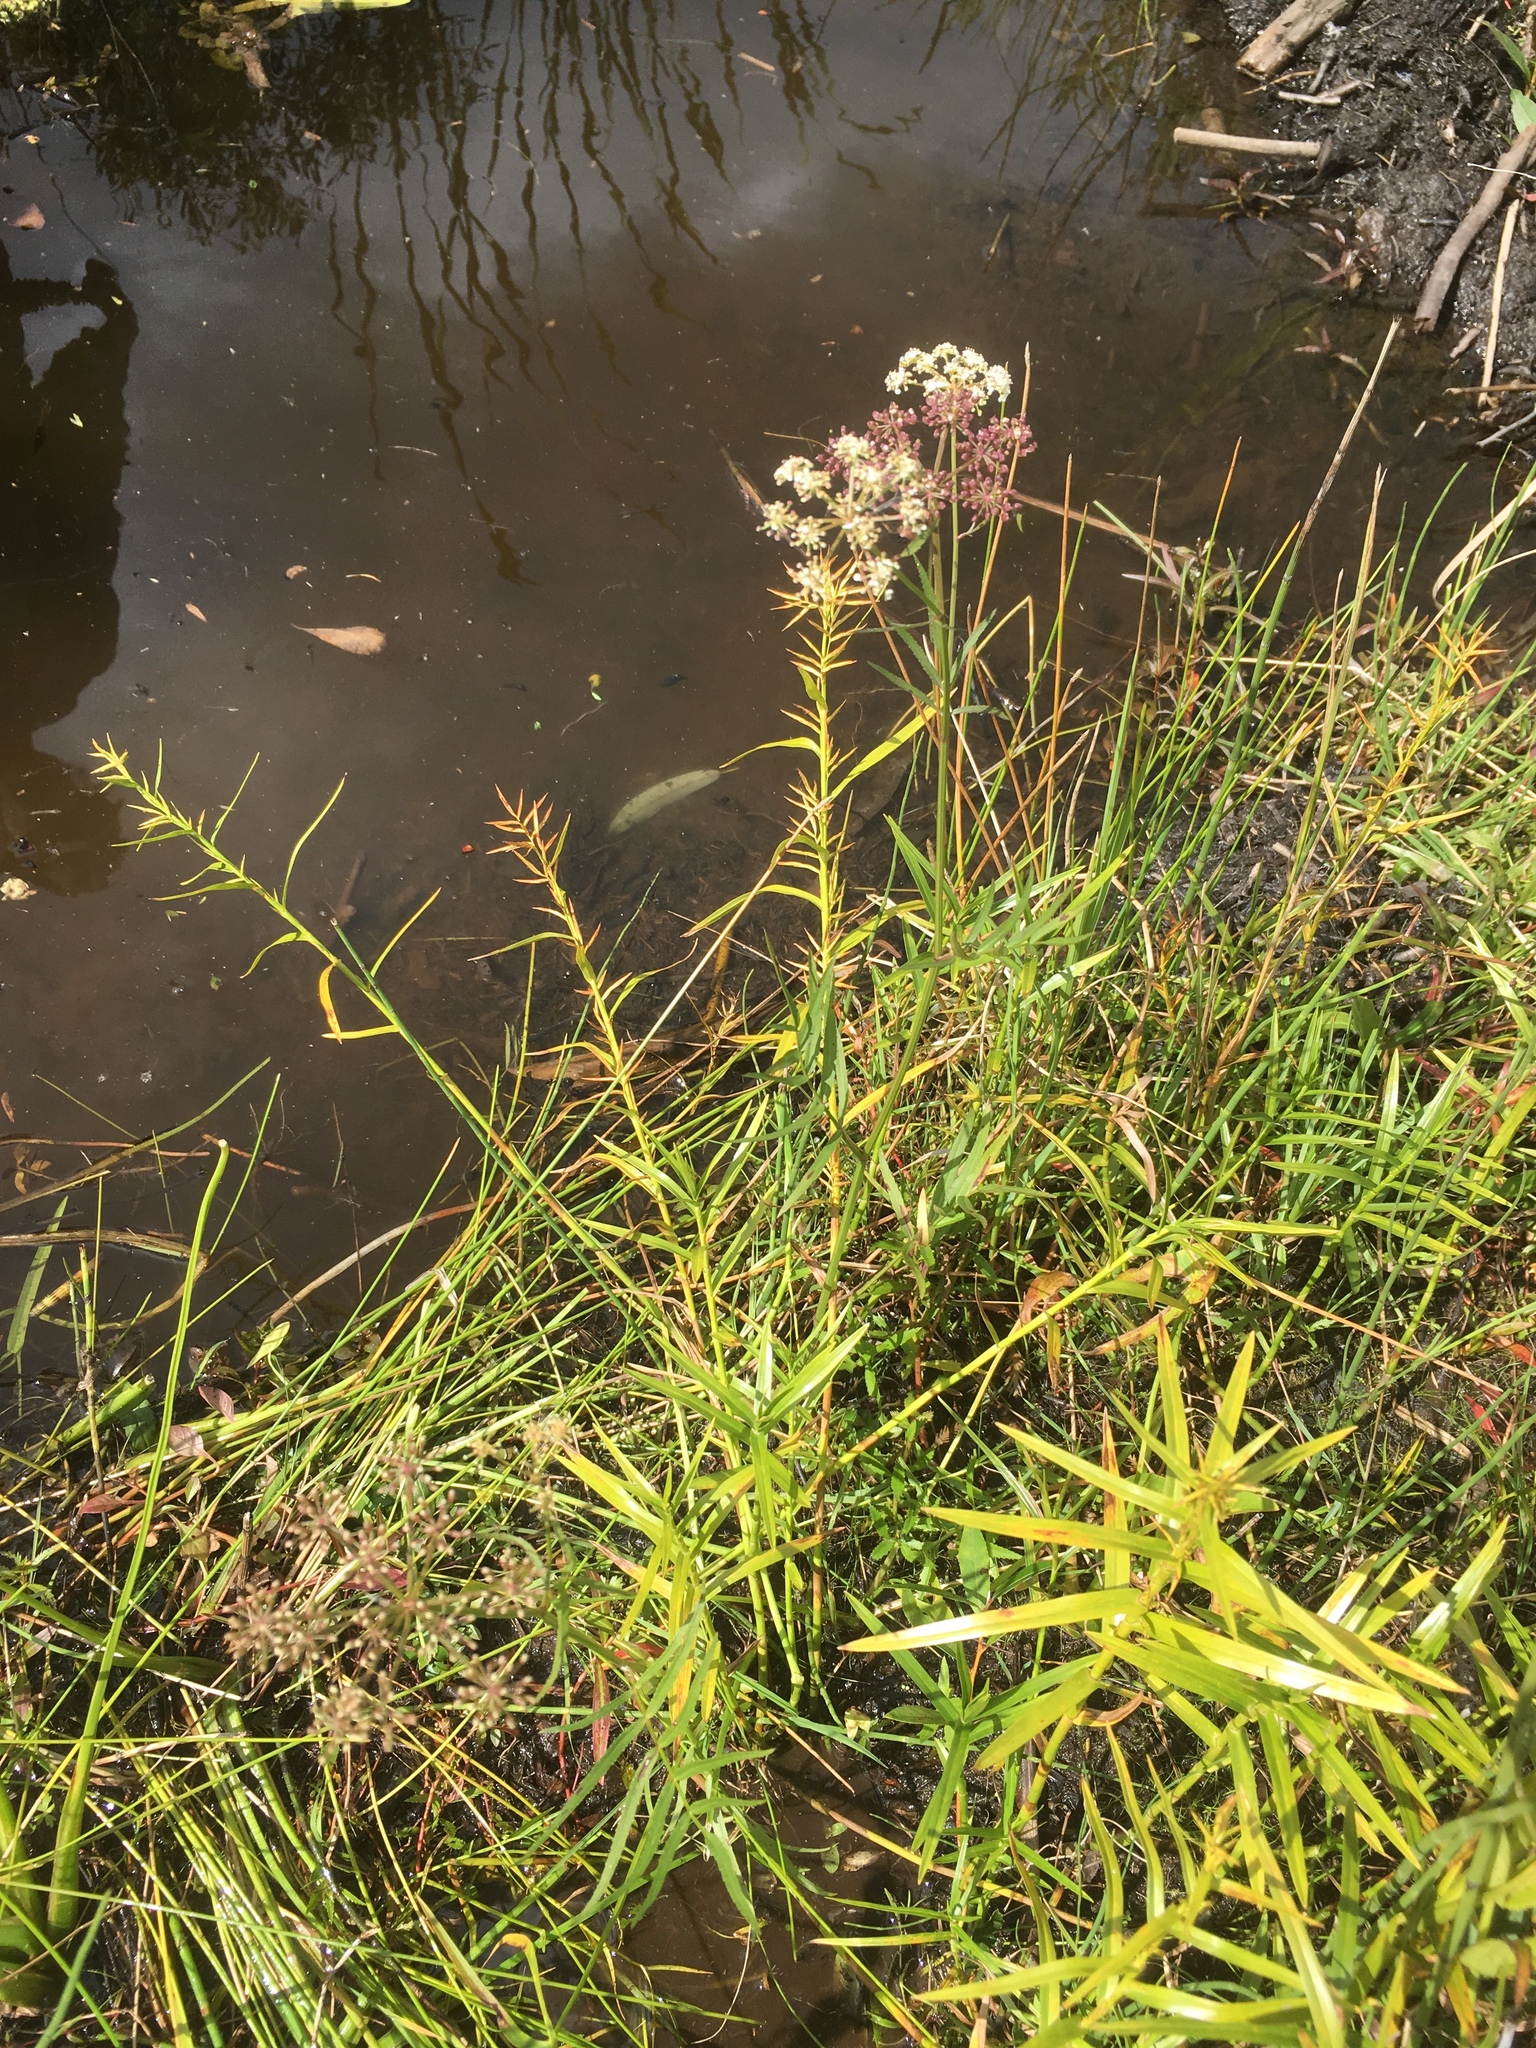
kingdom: Plantae
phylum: Tracheophyta
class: Magnoliopsida
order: Apiales
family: Apiaceae
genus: Sium
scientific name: Sium suave
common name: Hemlock water-parsnip
